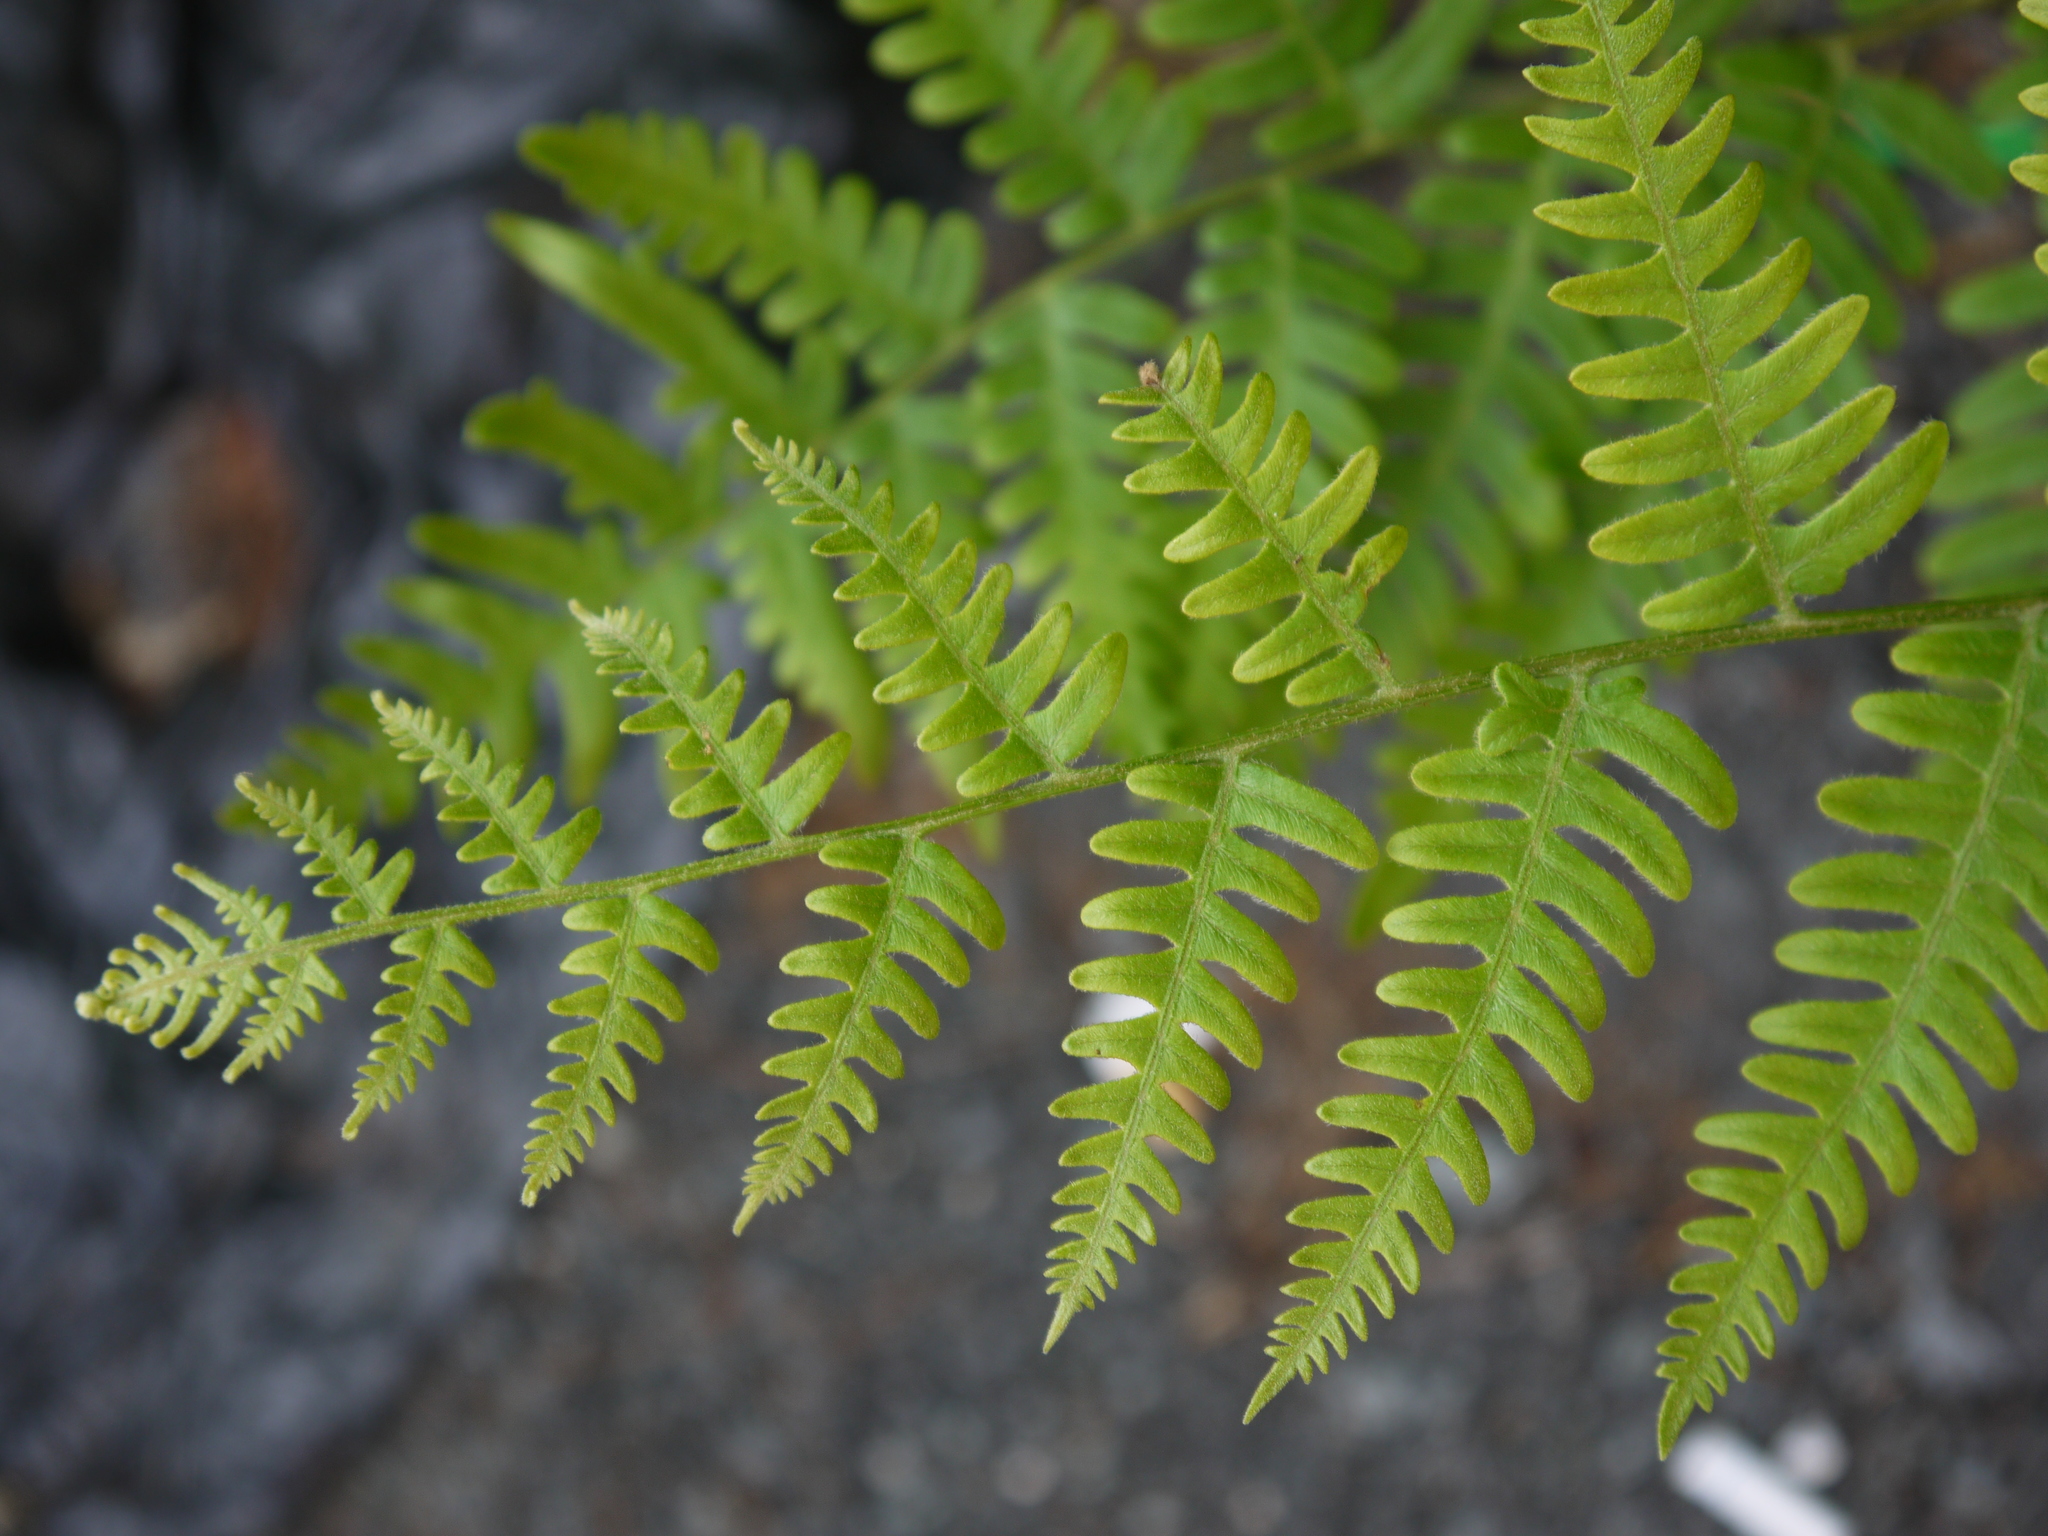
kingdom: Plantae
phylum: Tracheophyta
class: Polypodiopsida
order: Polypodiales
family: Dennstaedtiaceae
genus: Pteridium
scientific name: Pteridium aquilinum
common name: Bracken
